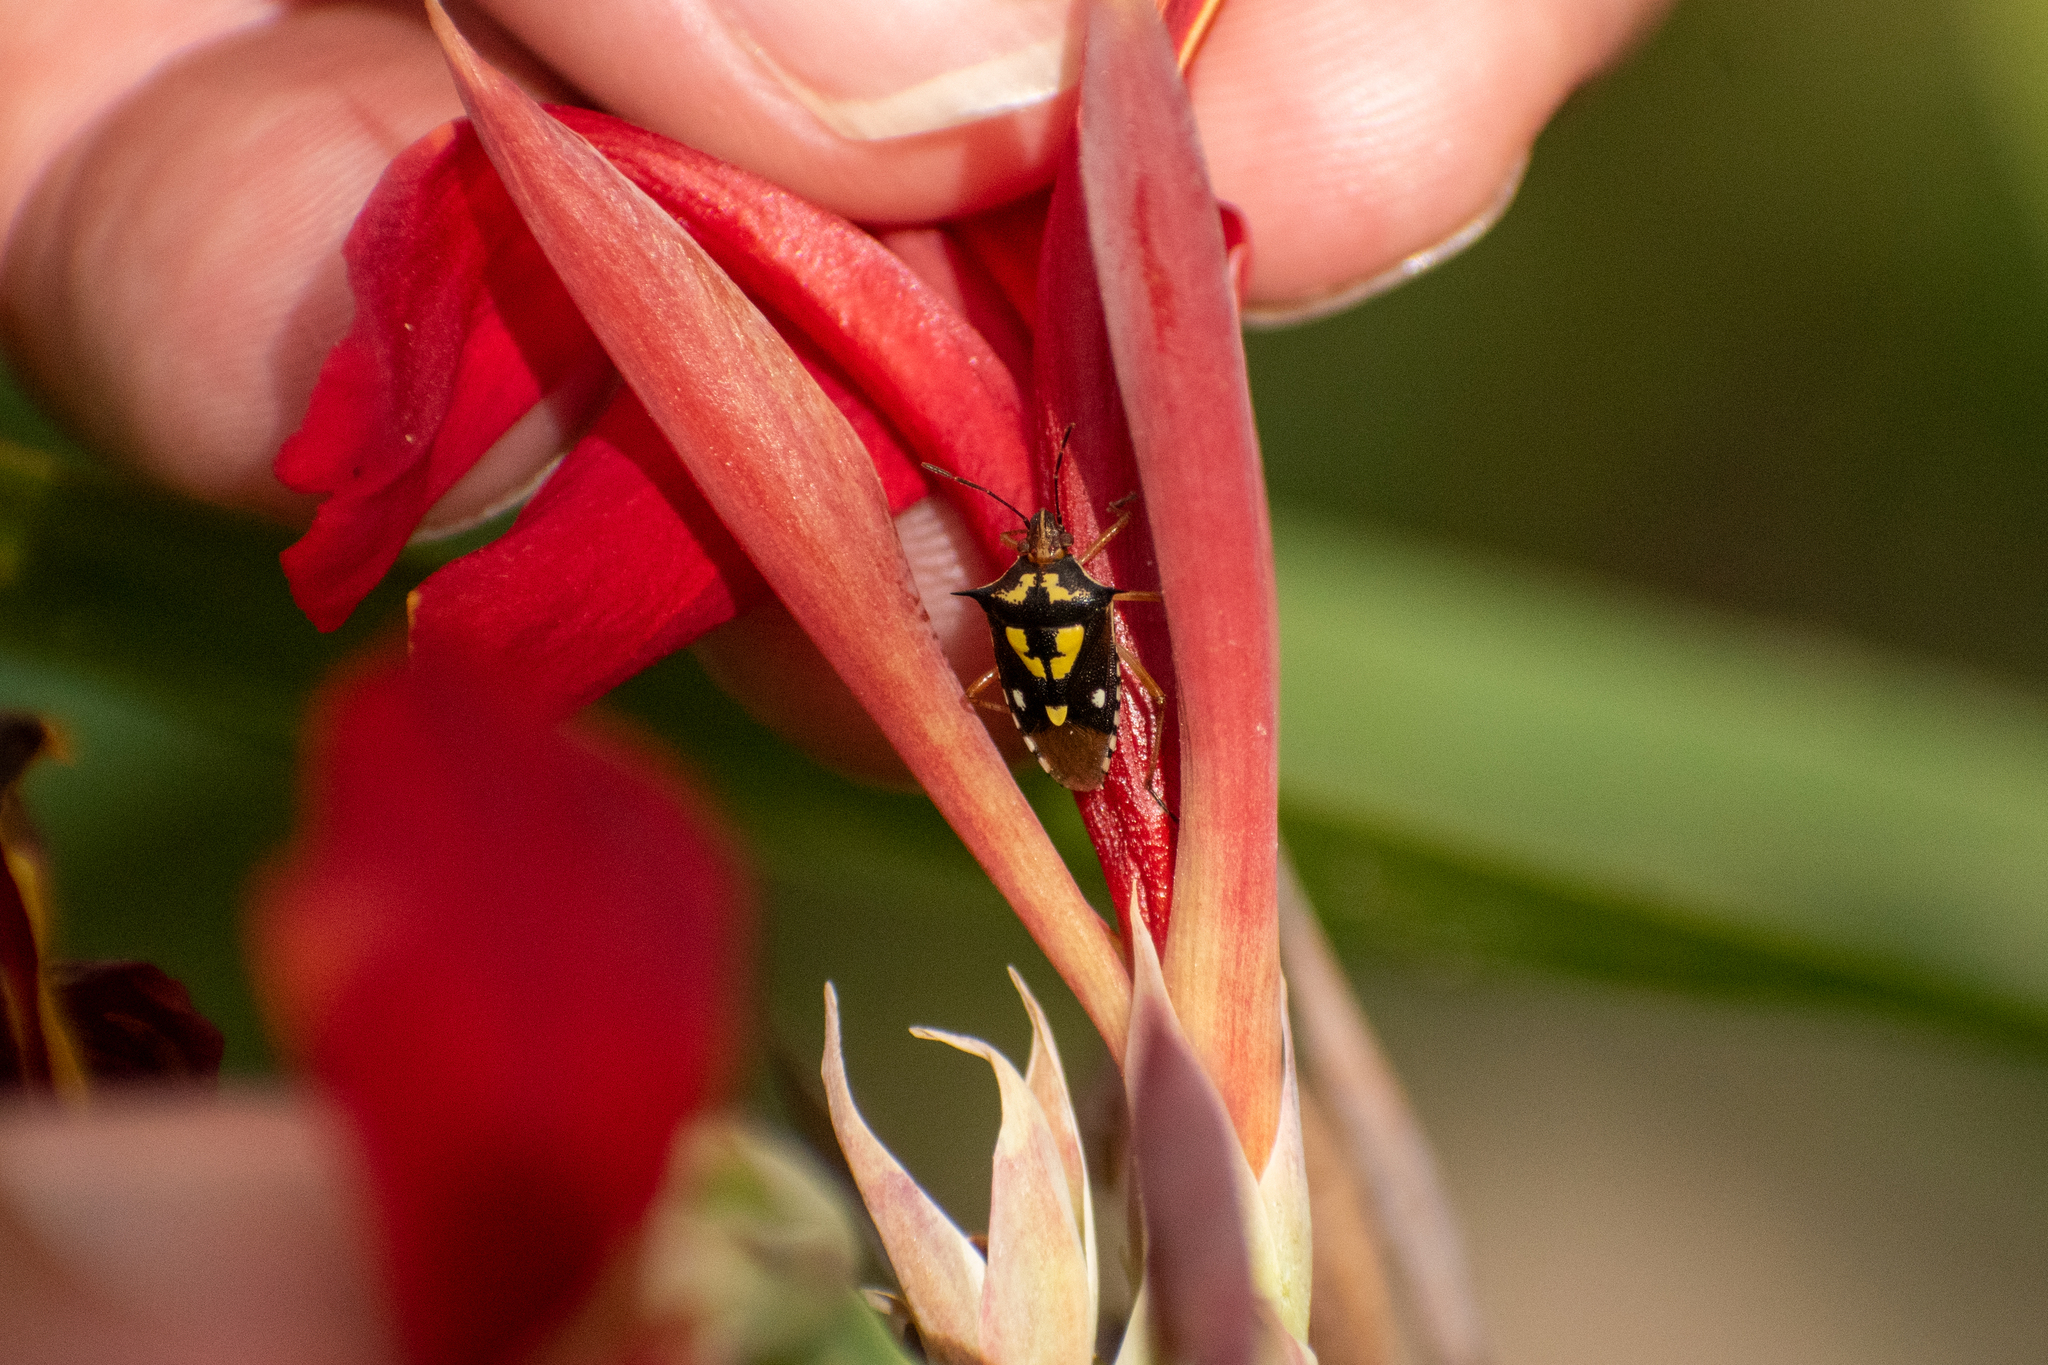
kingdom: Animalia
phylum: Arthropoda
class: Insecta
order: Hemiptera
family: Pentatomidae
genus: Oebalus
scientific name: Oebalus poecilus
